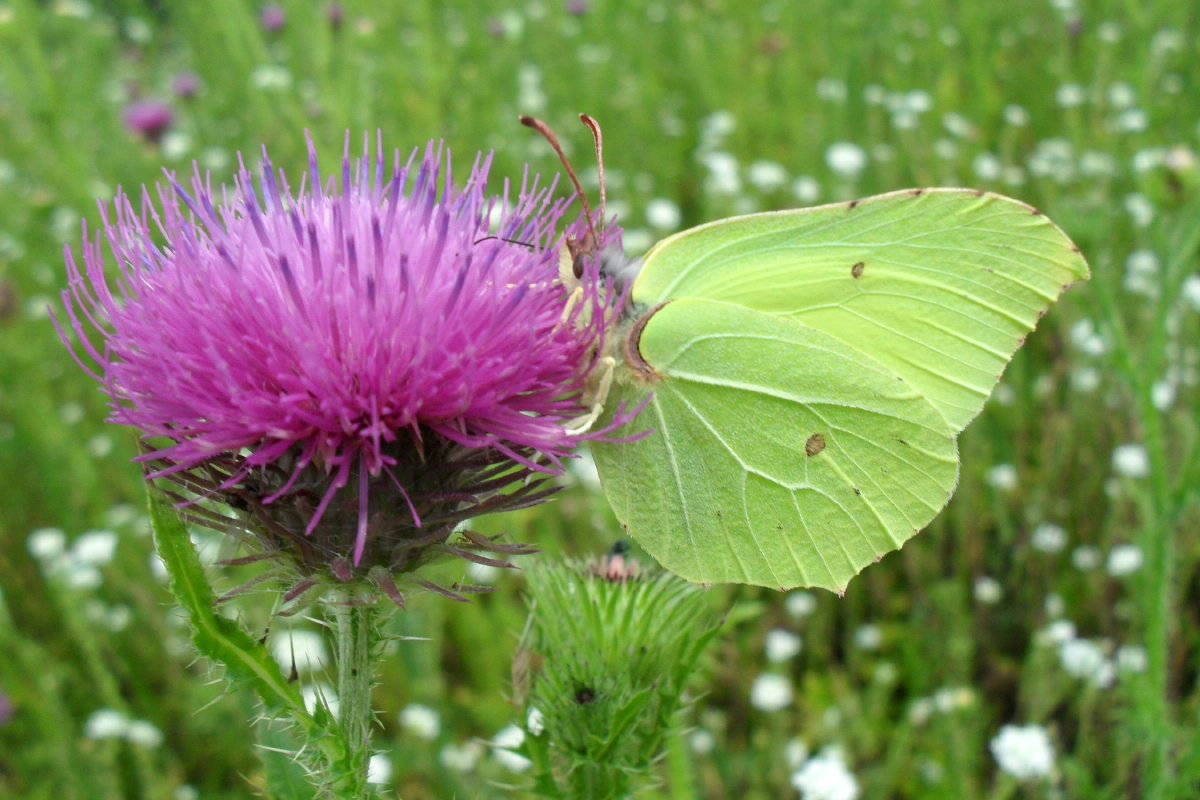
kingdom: Animalia
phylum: Arthropoda
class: Insecta
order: Lepidoptera
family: Pieridae
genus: Gonepteryx
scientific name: Gonepteryx rhamni
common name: Brimstone
